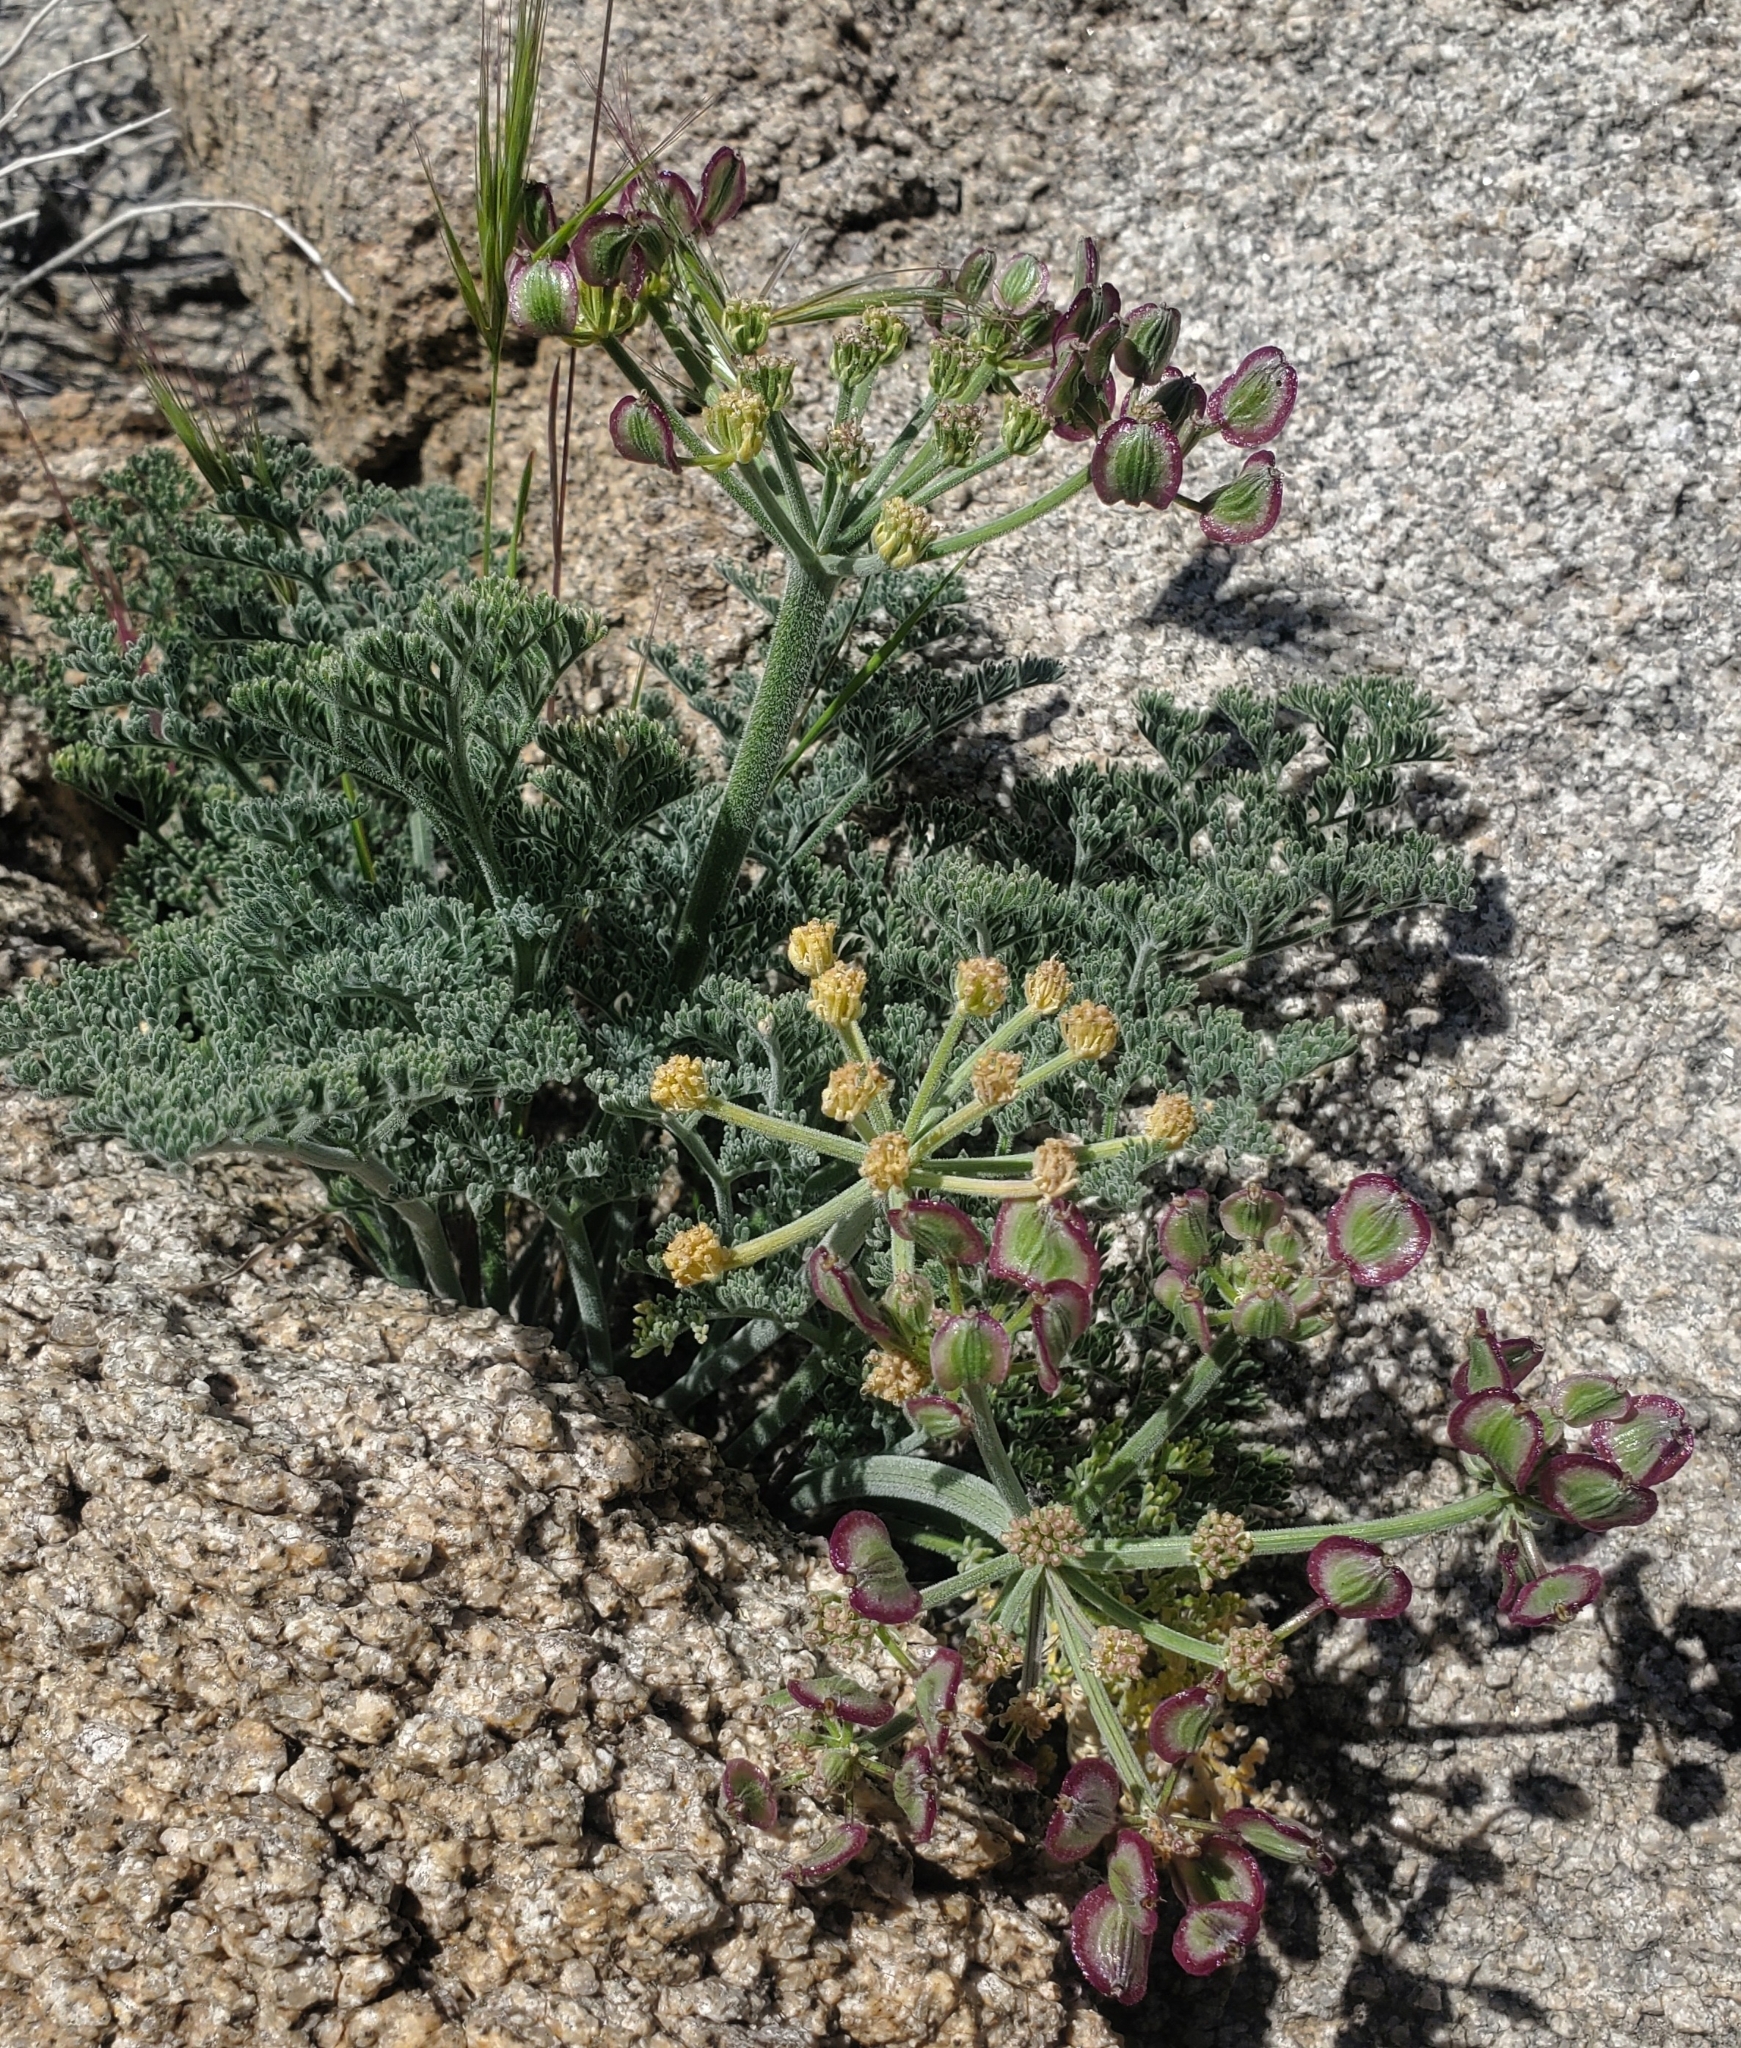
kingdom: Plantae
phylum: Tracheophyta
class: Magnoliopsida
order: Apiales
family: Apiaceae
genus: Lomatium
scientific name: Lomatium mohavense
